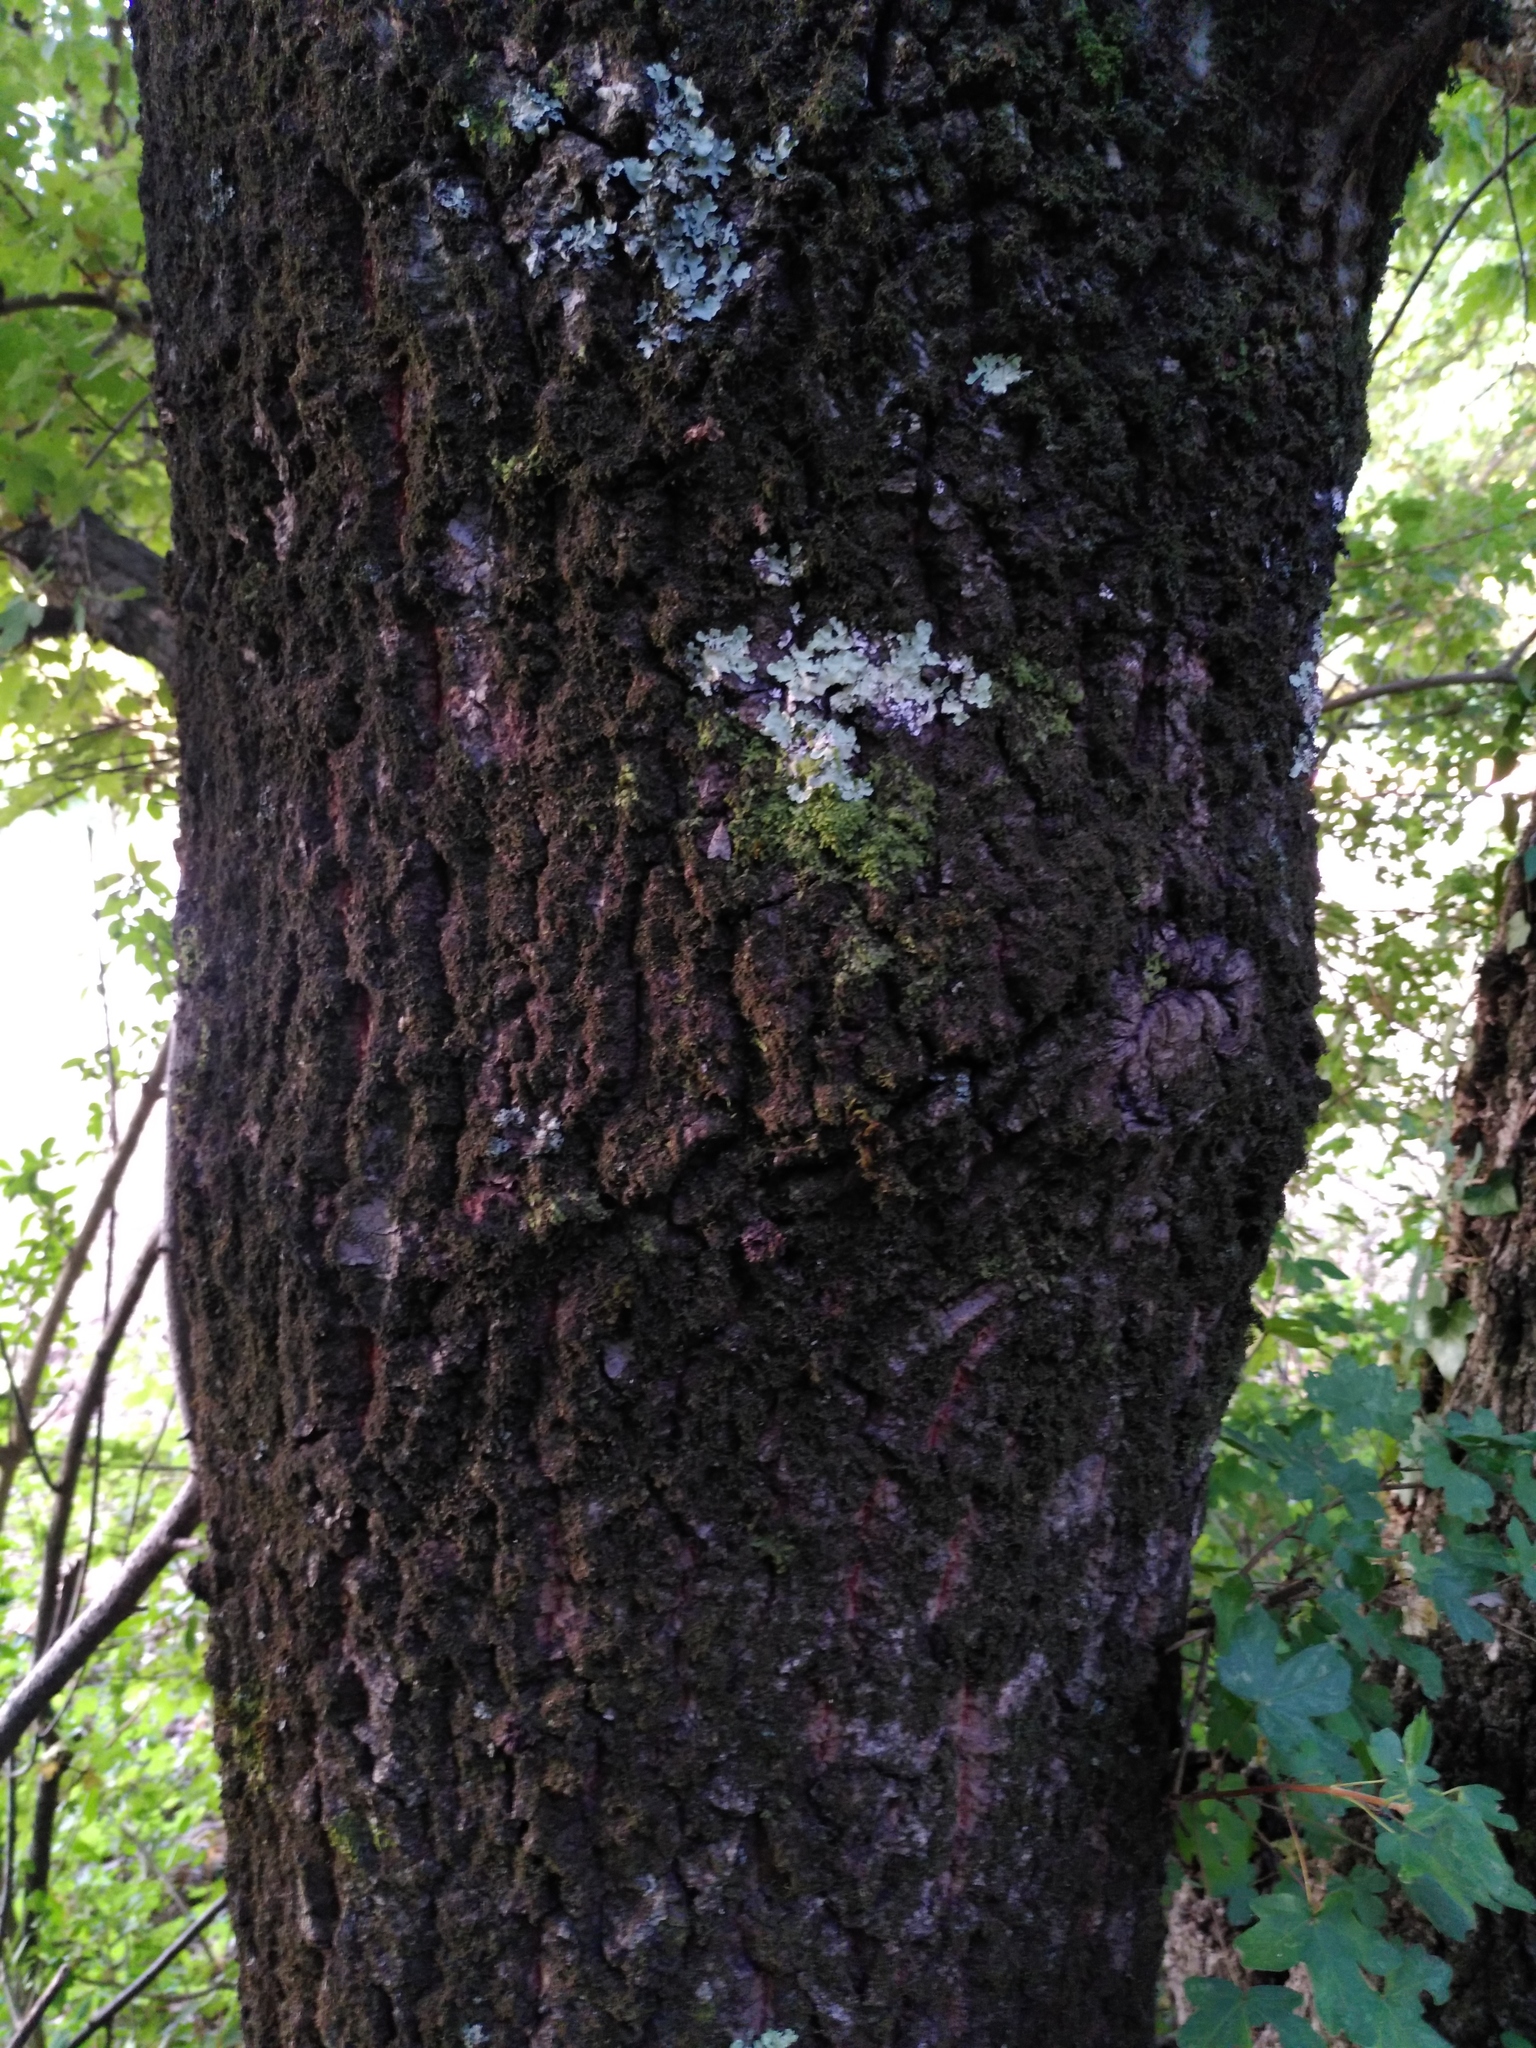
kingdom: Plantae
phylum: Tracheophyta
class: Magnoliopsida
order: Fagales
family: Fagaceae
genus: Quercus
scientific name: Quercus cerris
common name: Turkey oak
